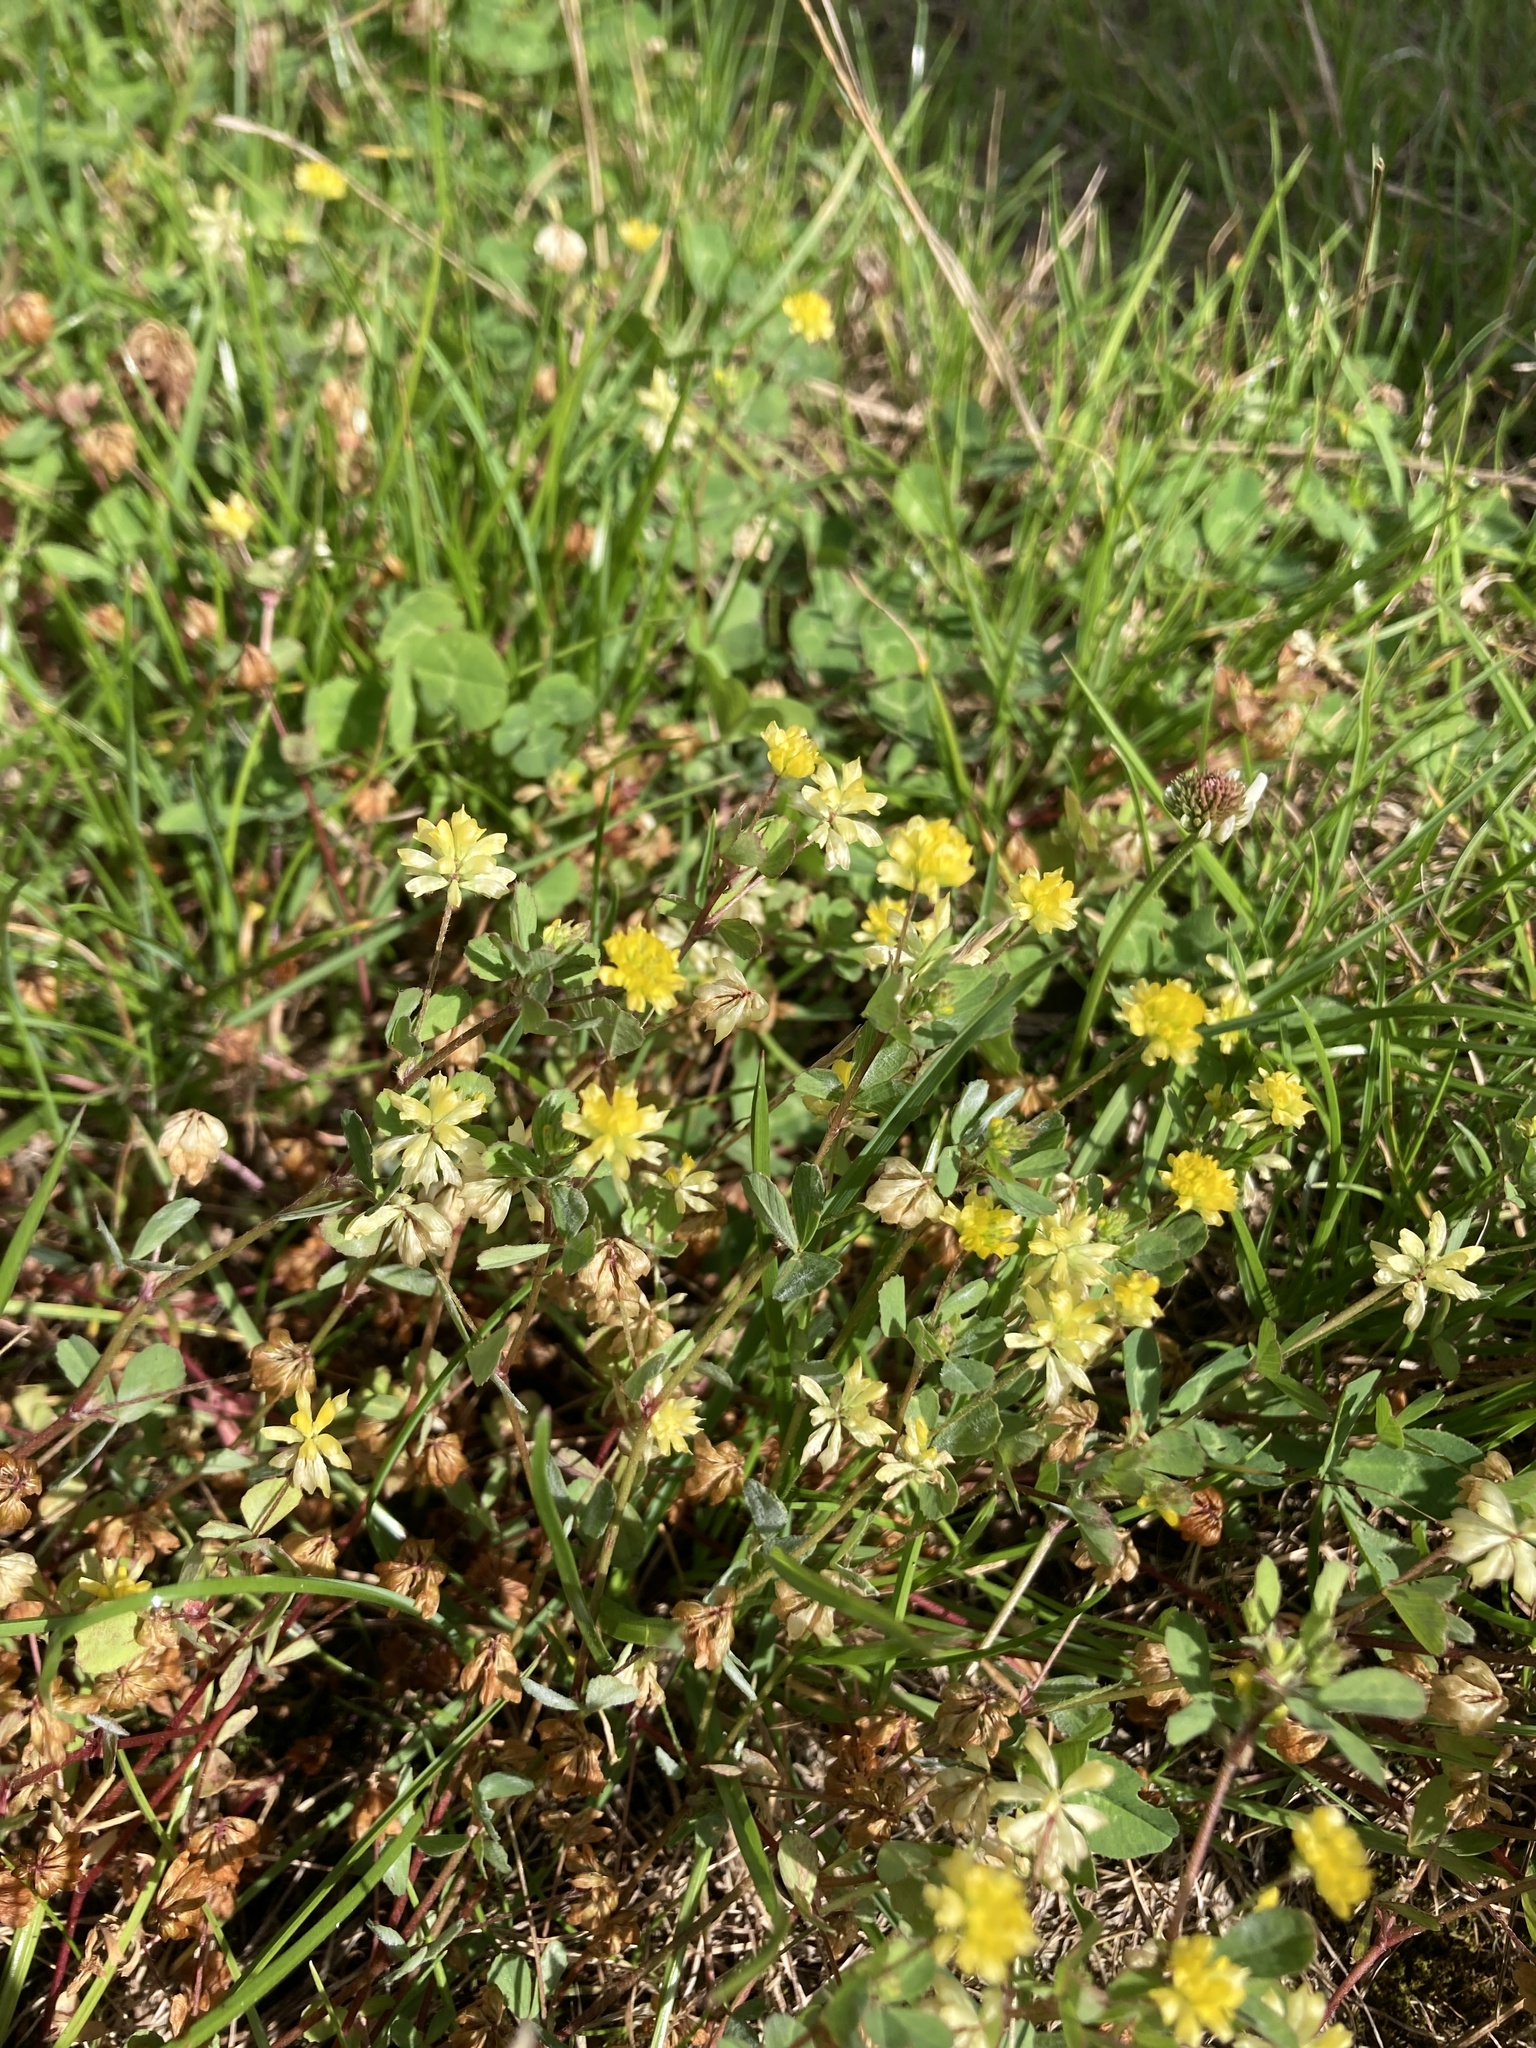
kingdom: Plantae
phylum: Tracheophyta
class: Magnoliopsida
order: Fabales
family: Fabaceae
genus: Trifolium
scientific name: Trifolium dubium
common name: Suckling clover
